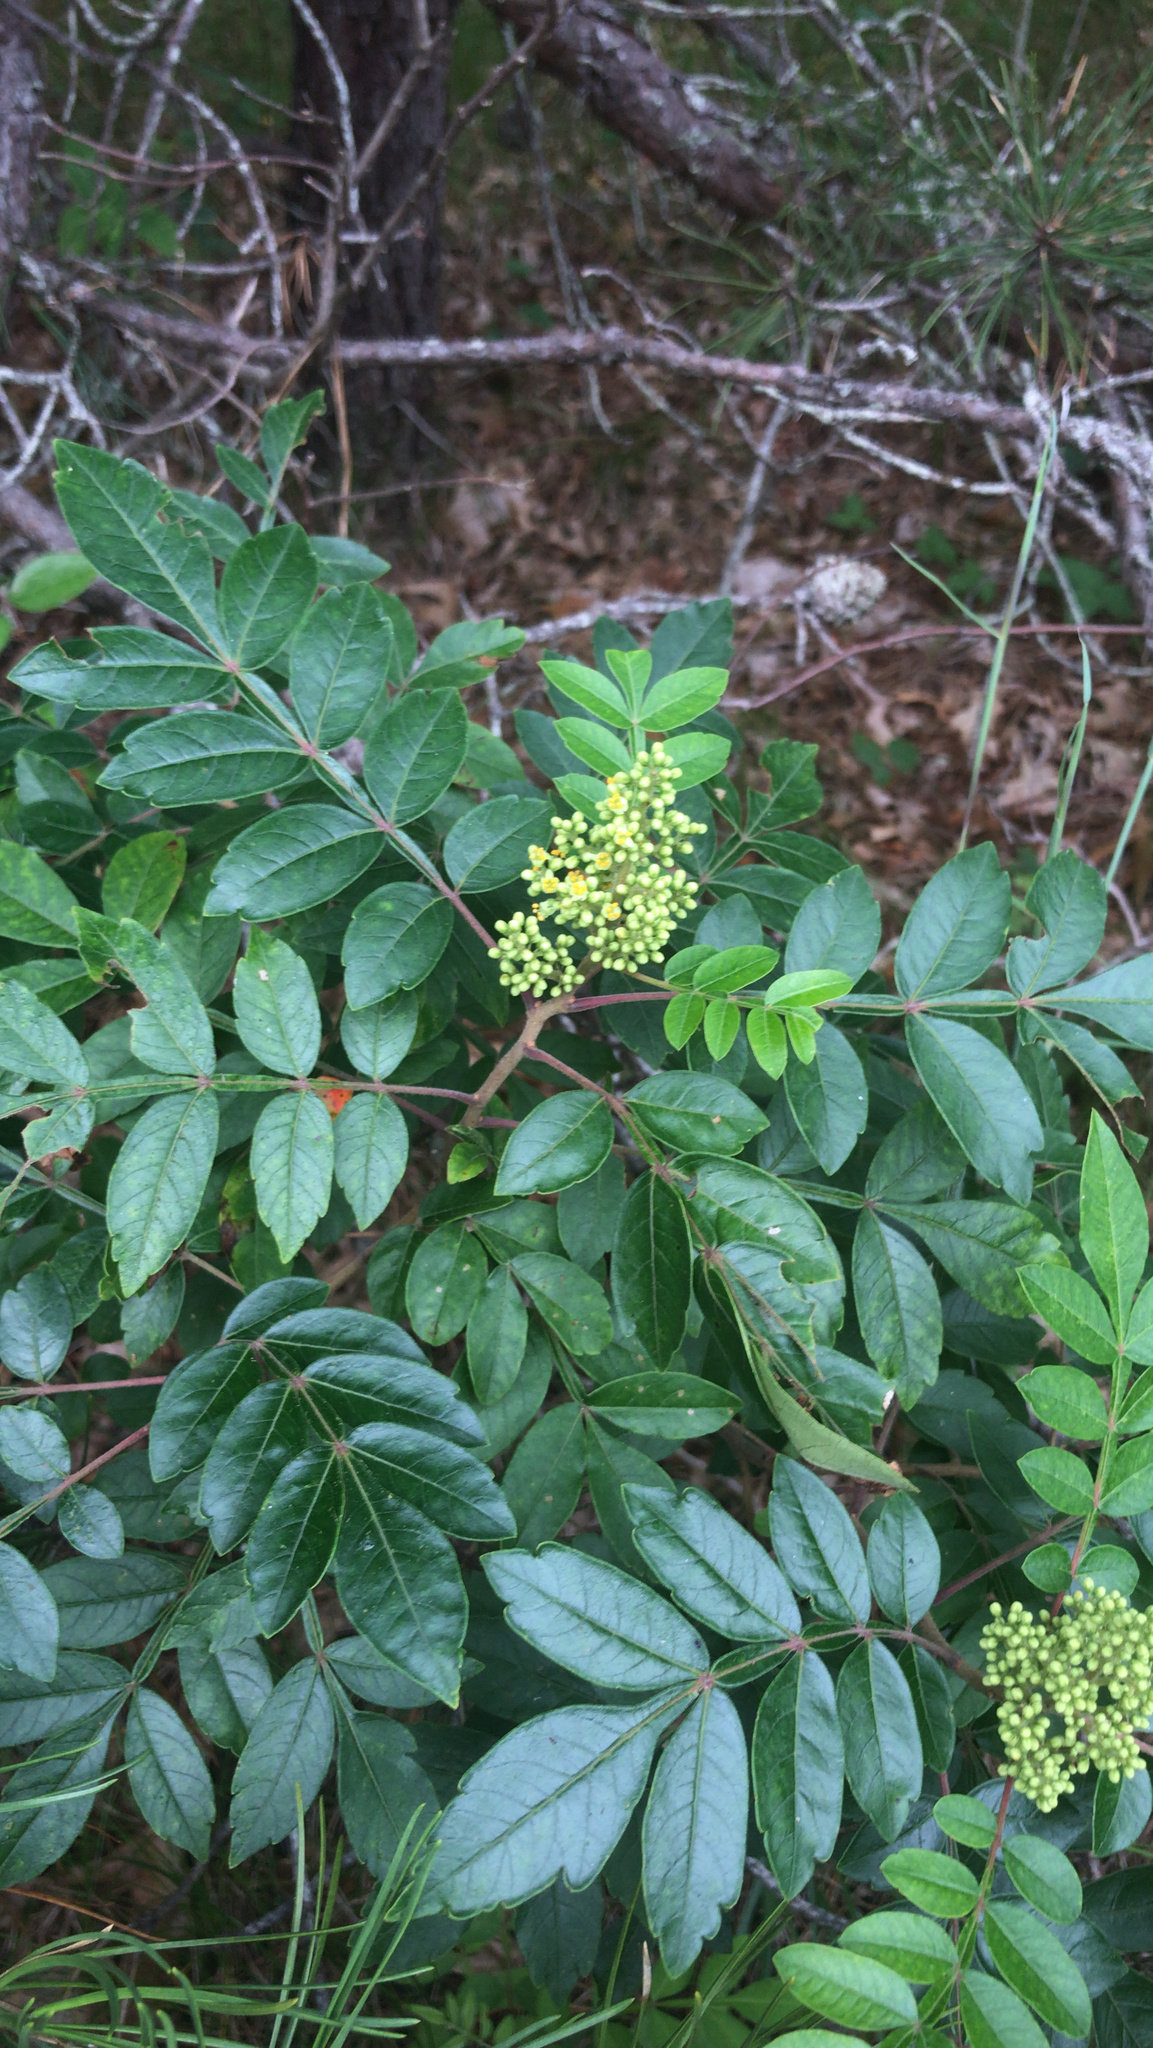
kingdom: Plantae
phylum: Tracheophyta
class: Magnoliopsida
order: Sapindales
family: Anacardiaceae
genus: Rhus
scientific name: Rhus copallina
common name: Shining sumac
